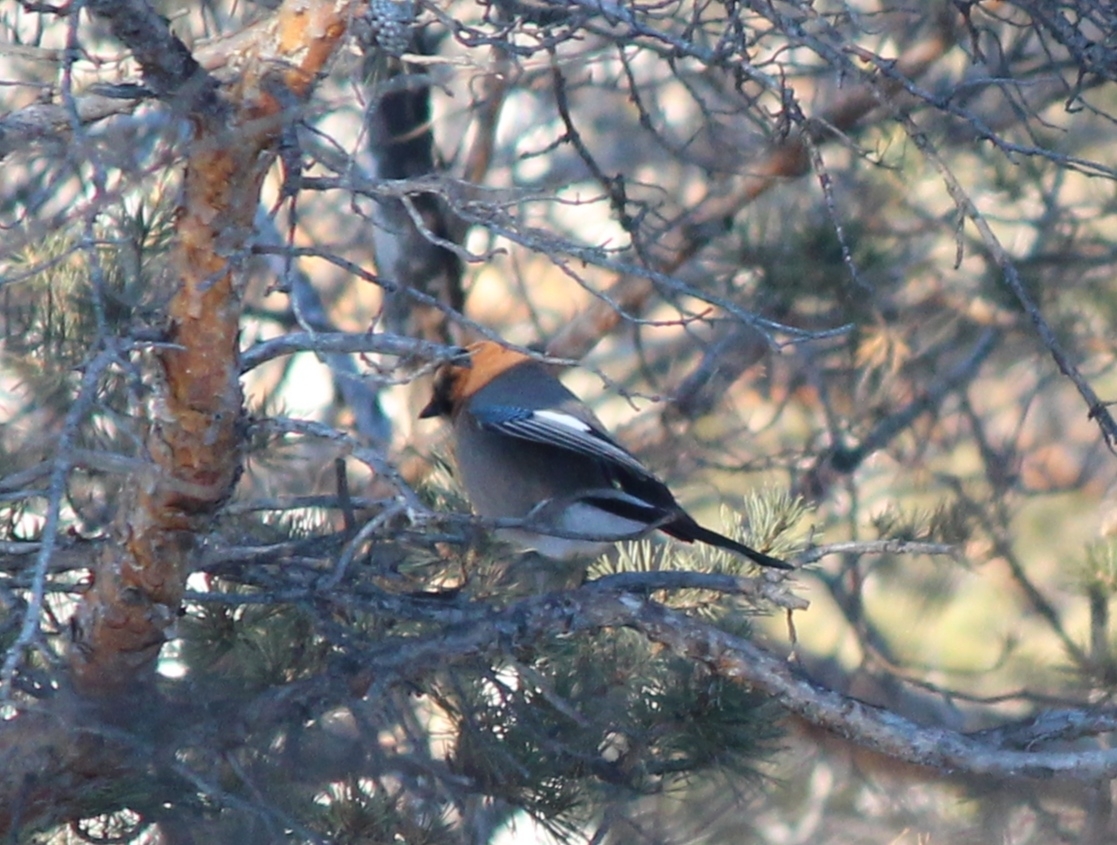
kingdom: Animalia
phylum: Chordata
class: Aves
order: Passeriformes
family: Corvidae
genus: Garrulus
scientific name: Garrulus glandarius
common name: Eurasian jay
